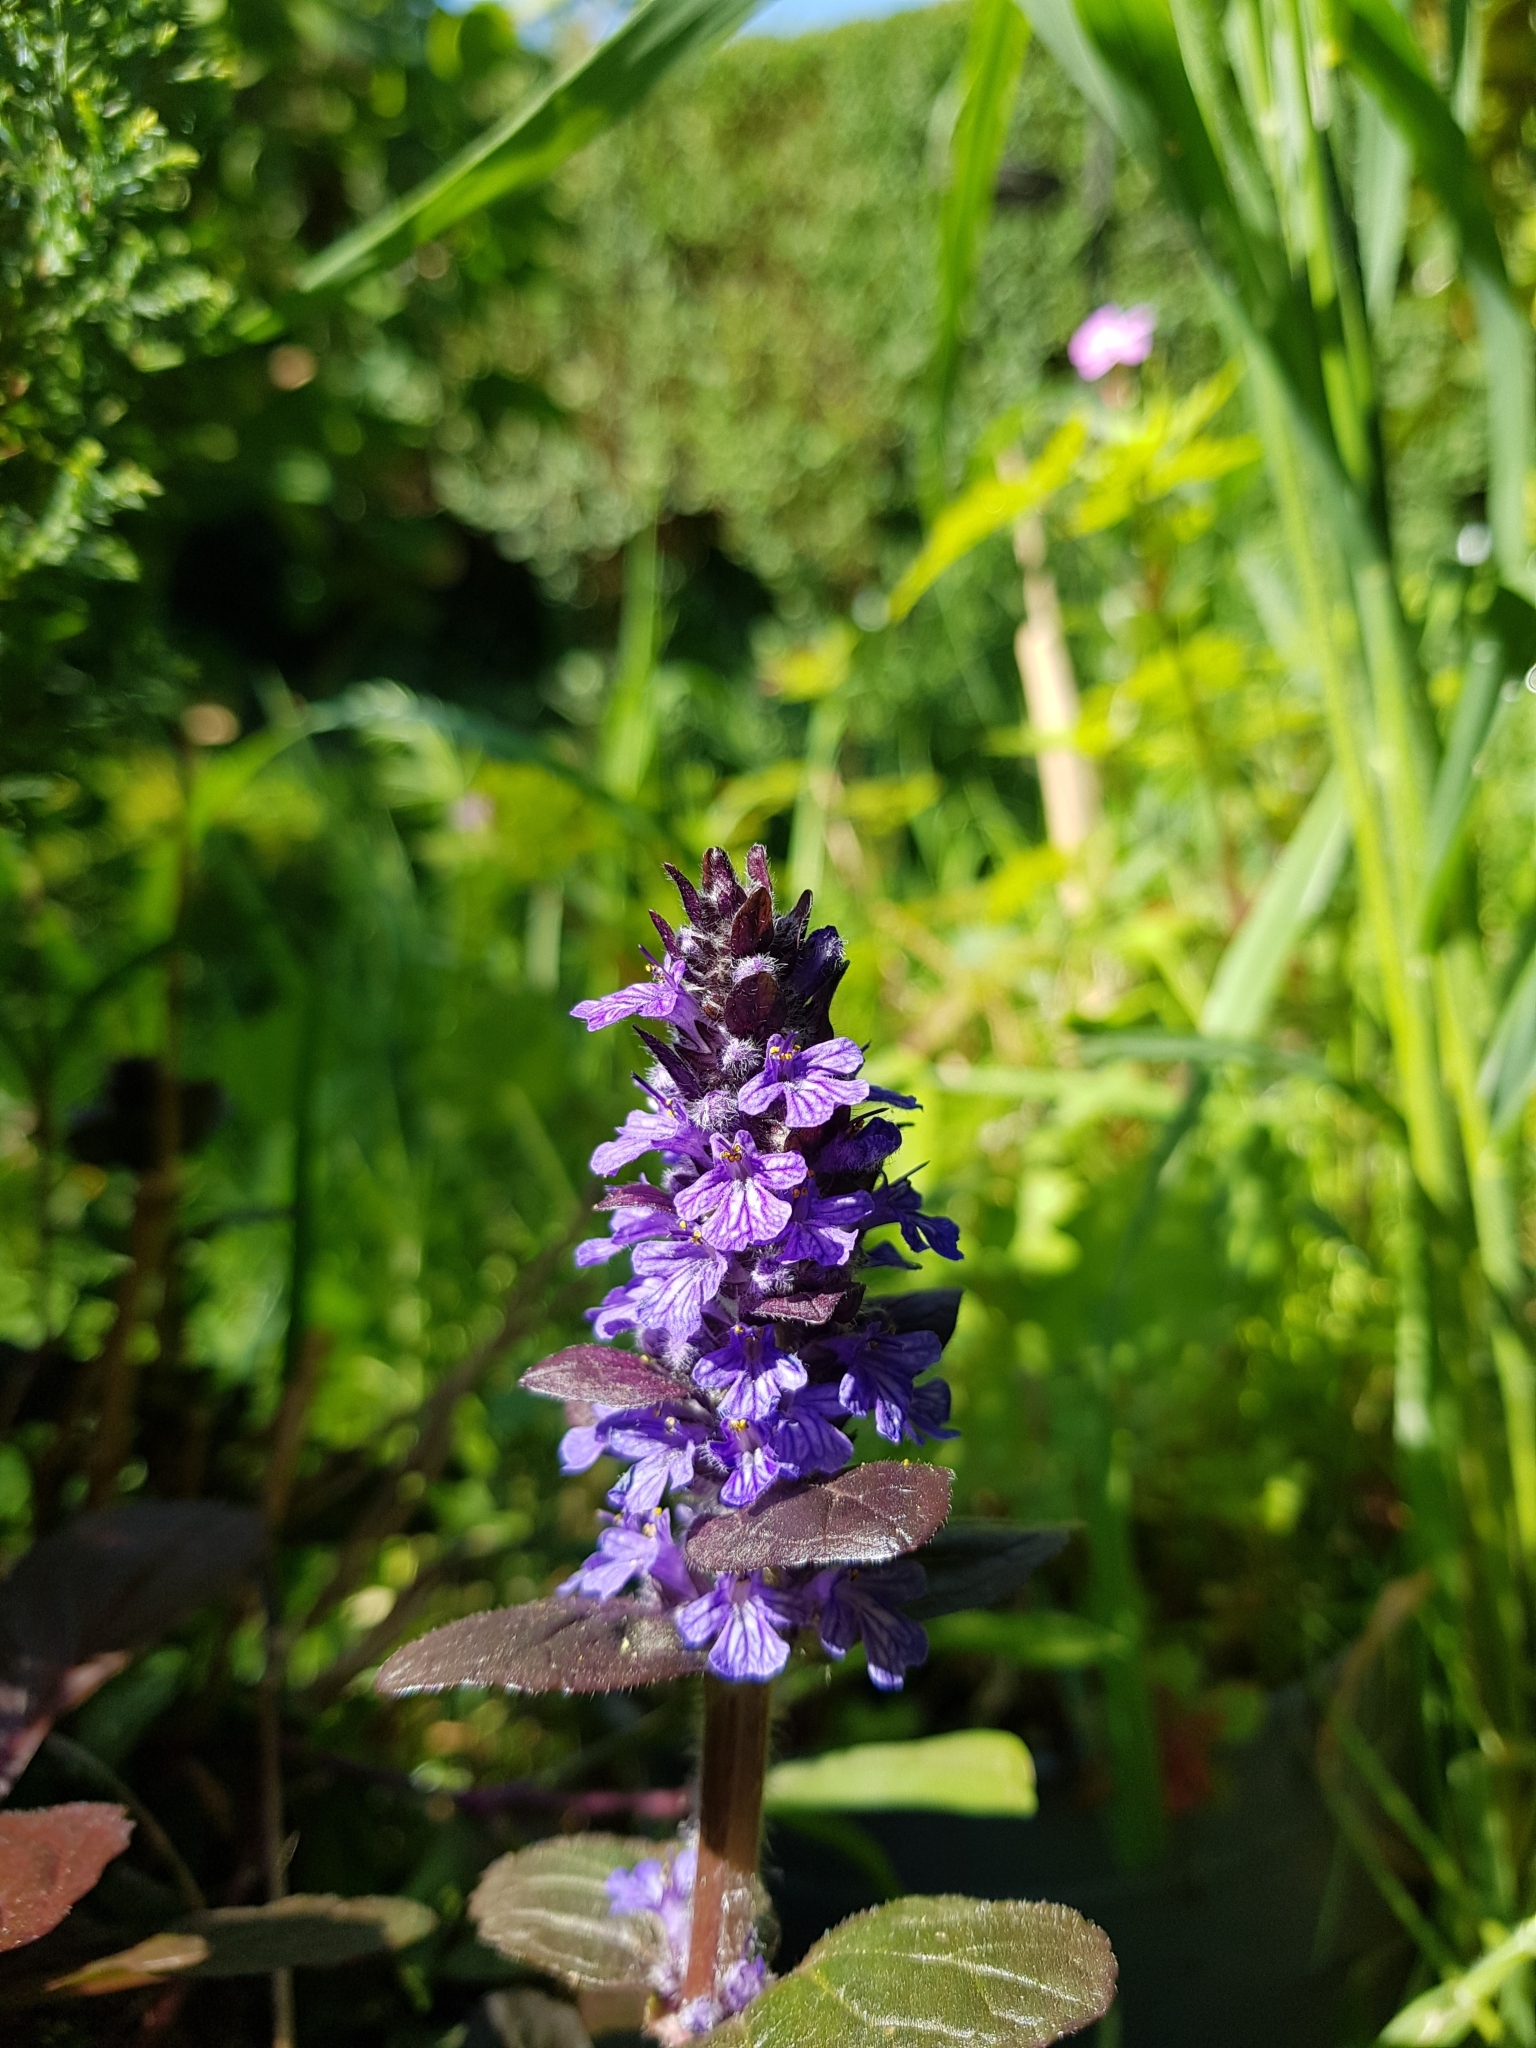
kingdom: Plantae
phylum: Tracheophyta
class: Magnoliopsida
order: Lamiales
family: Lamiaceae
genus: Ajuga
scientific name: Ajuga reptans
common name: Bugle
